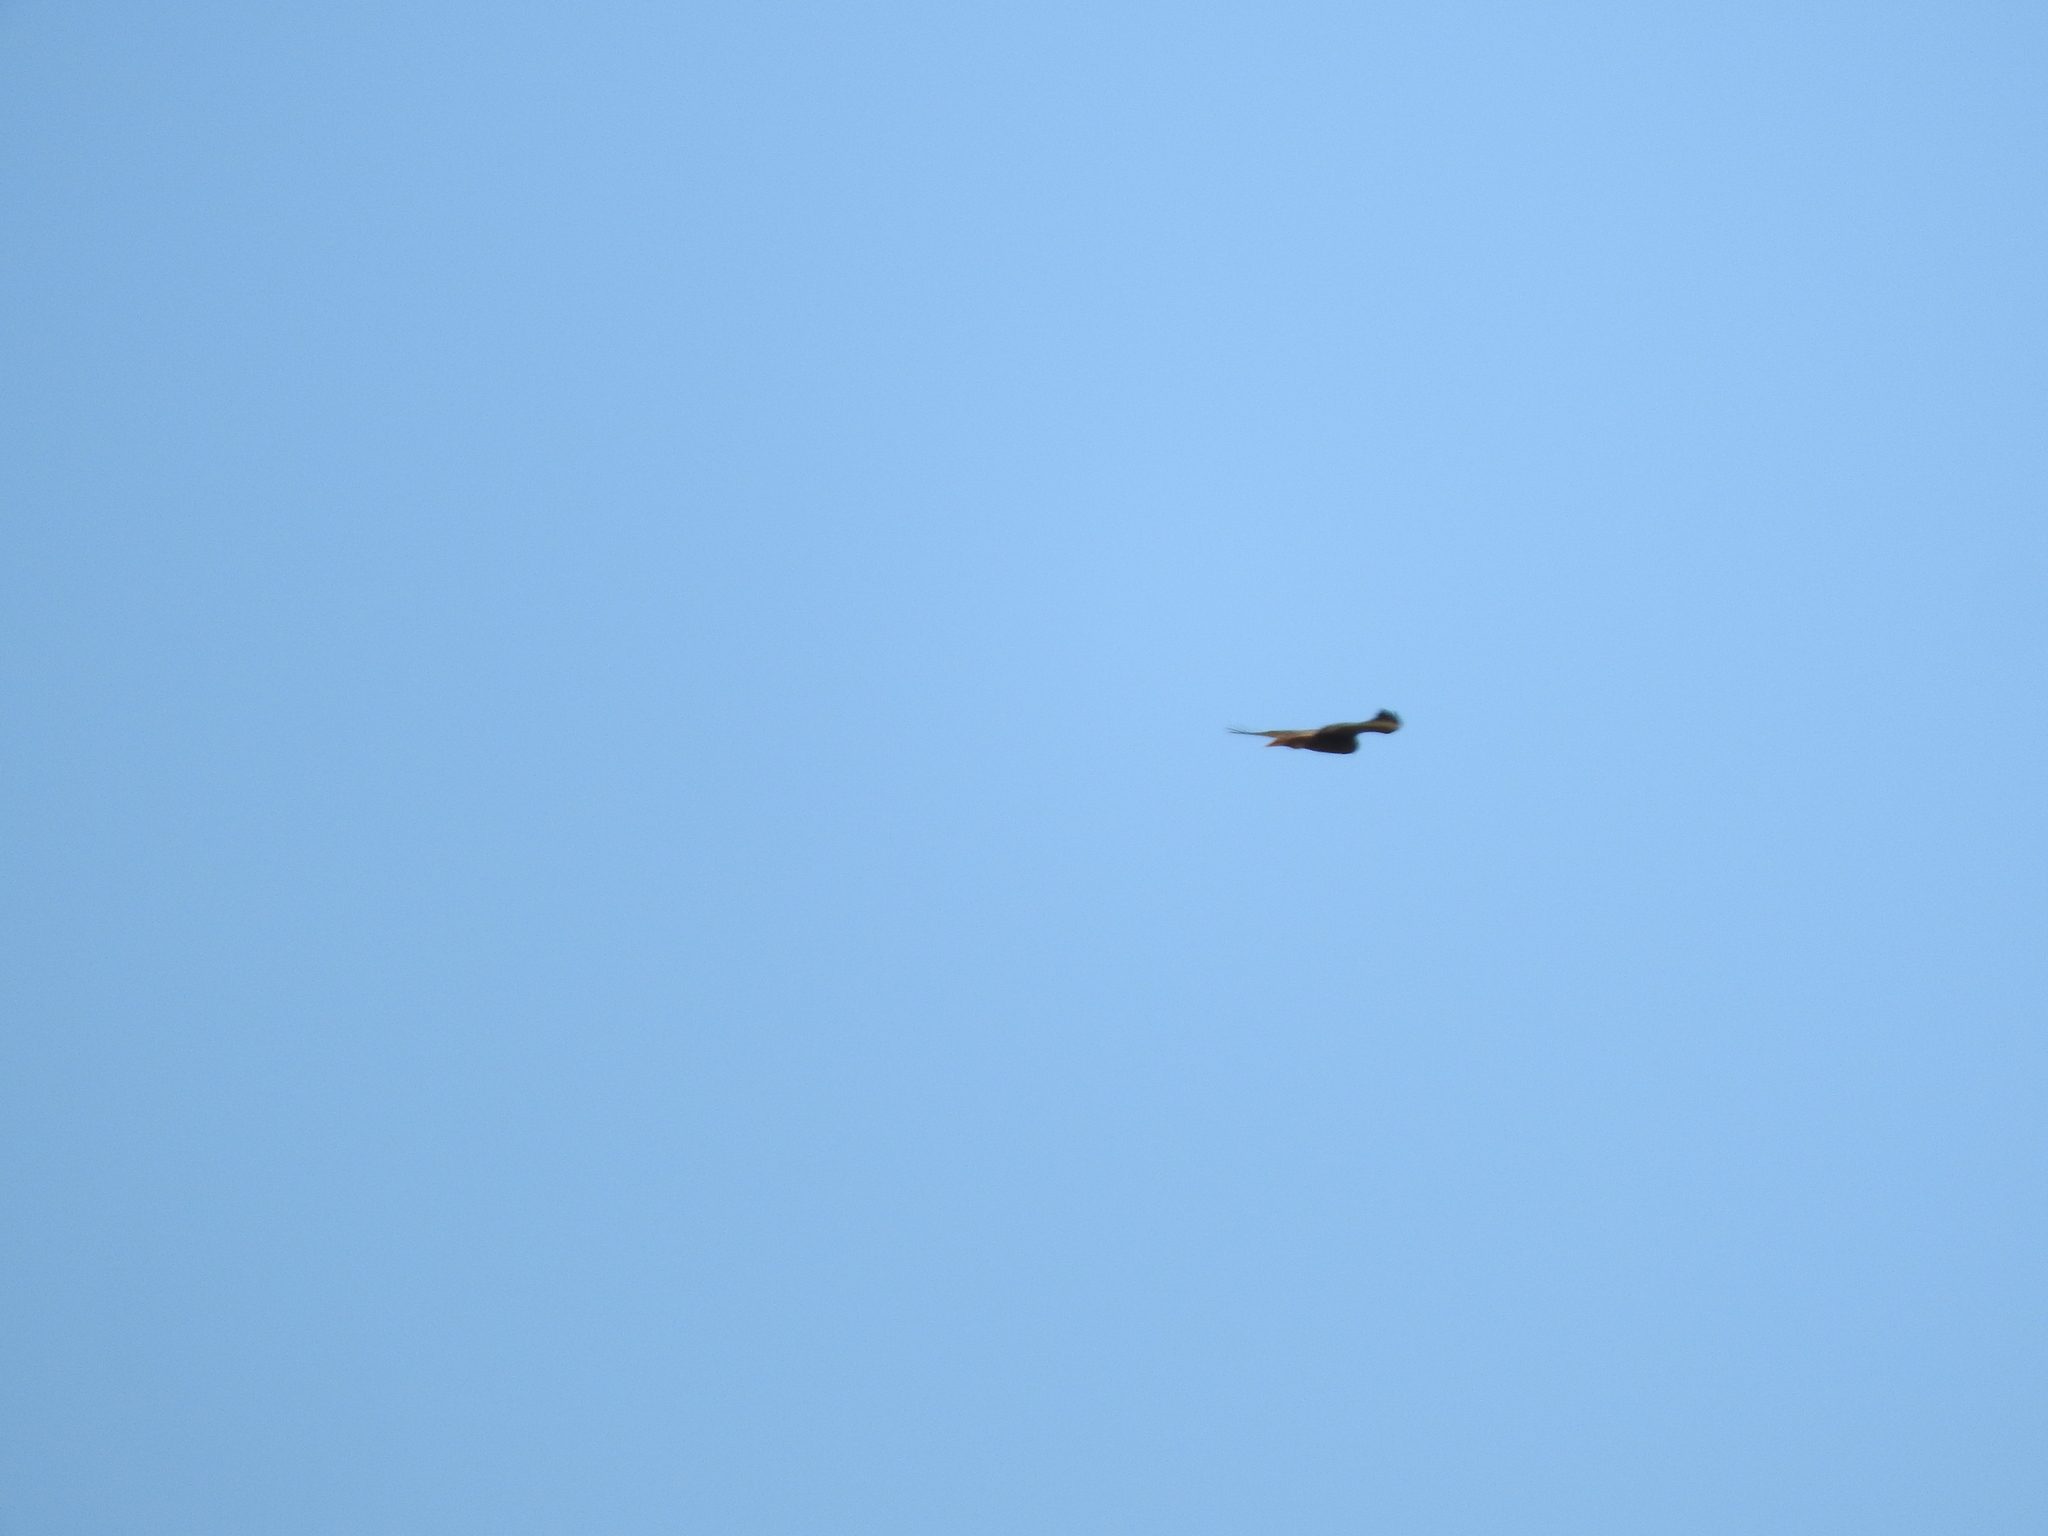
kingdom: Animalia
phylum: Chordata
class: Aves
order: Accipitriformes
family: Cathartidae
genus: Cathartes
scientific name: Cathartes aura
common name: Turkey vulture
